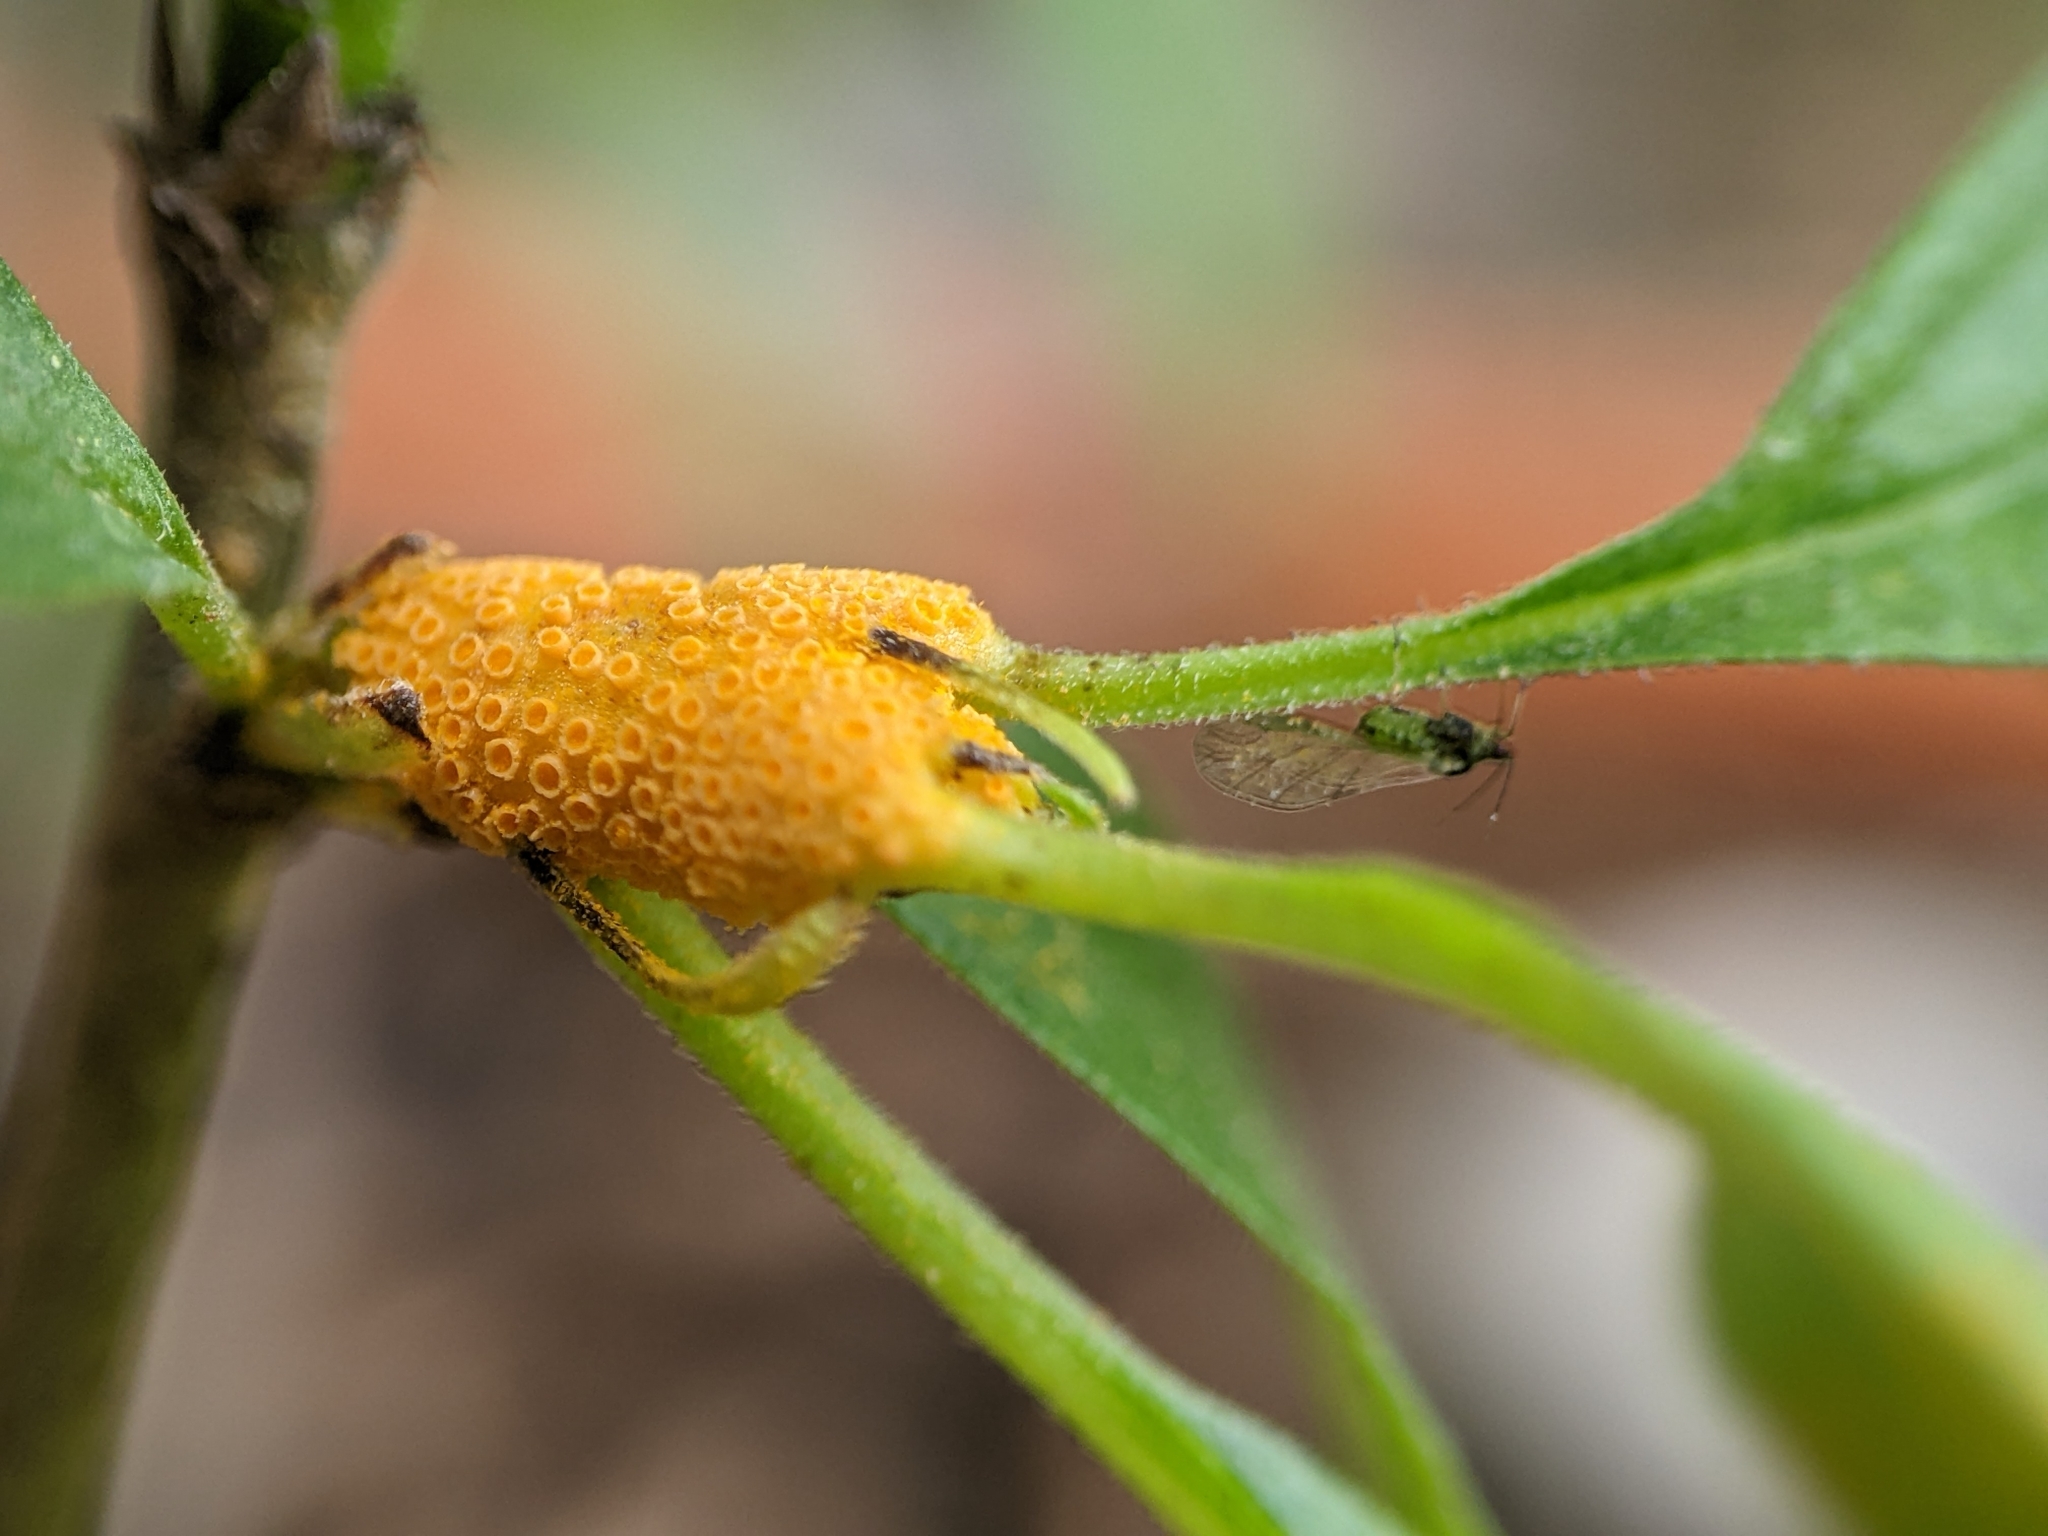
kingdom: Fungi
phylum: Basidiomycota
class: Pucciniomycetes
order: Pucciniales
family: Pucciniaceae
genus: Puccinia
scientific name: Puccinia coronata
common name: Crown rust
